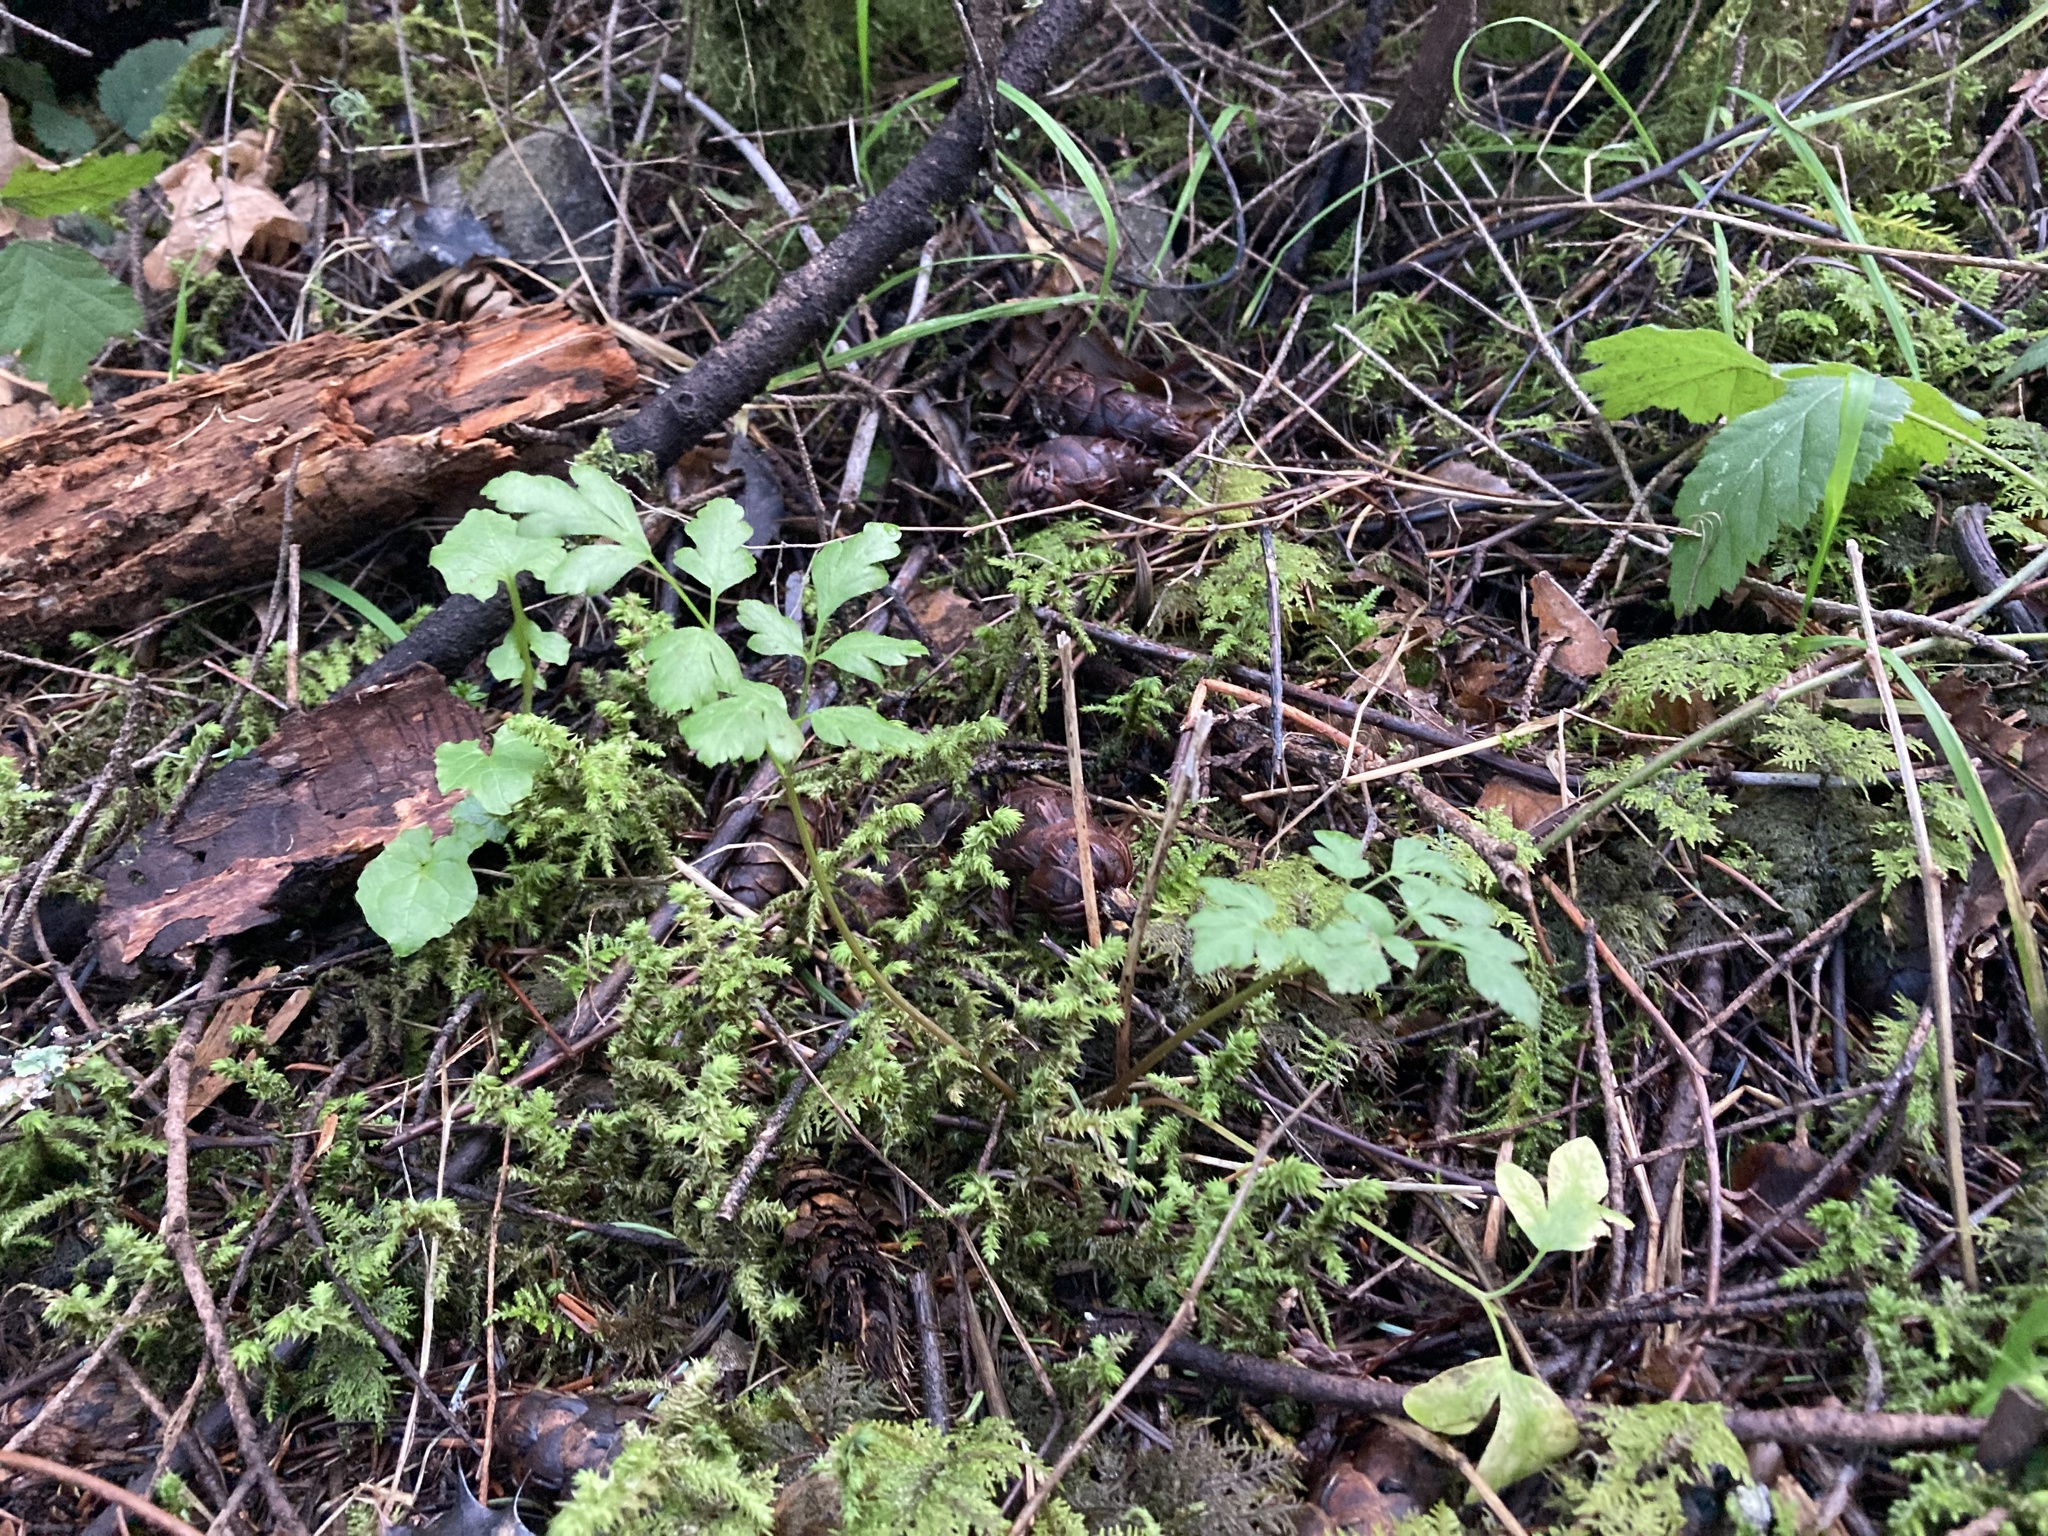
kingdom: Plantae
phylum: Tracheophyta
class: Magnoliopsida
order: Apiales
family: Apiaceae
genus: Osmorhiza
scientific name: Osmorhiza berteroi
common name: Mountain sweet cicely
